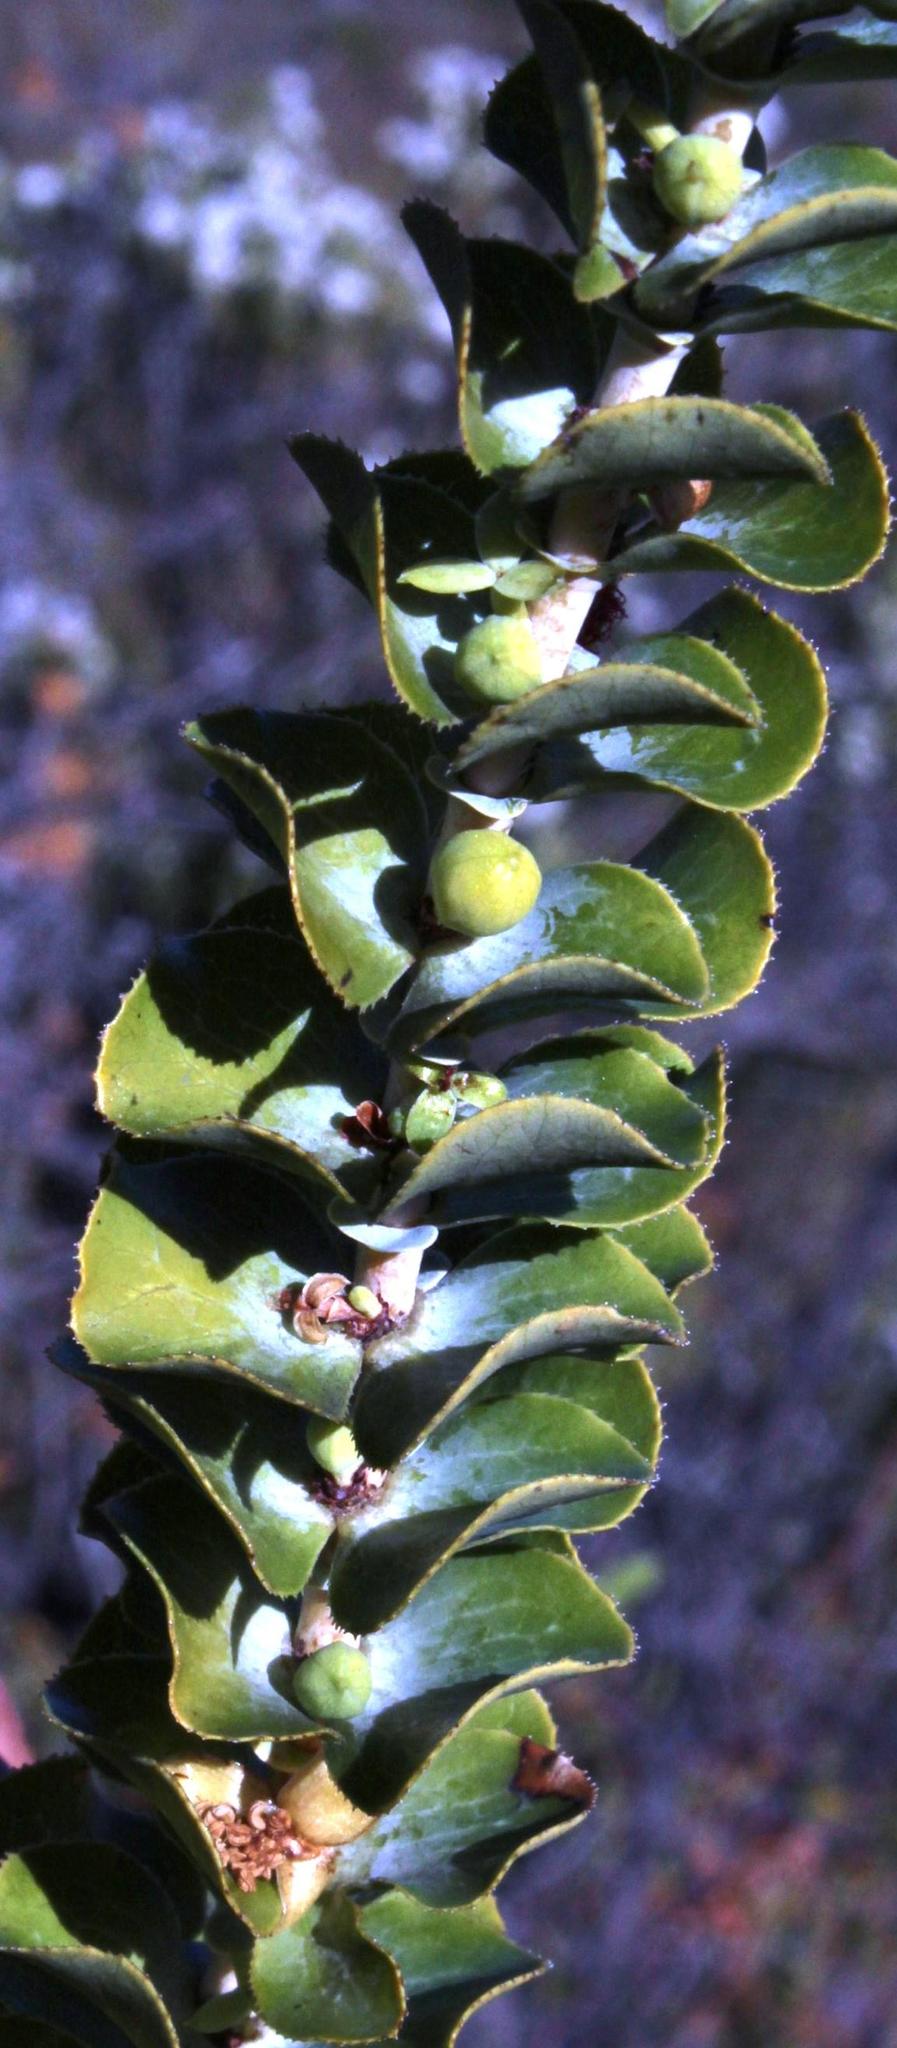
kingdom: Plantae
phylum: Tracheophyta
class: Magnoliopsida
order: Rosales
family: Rosaceae
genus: Cliffortia
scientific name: Cliffortia crenata
